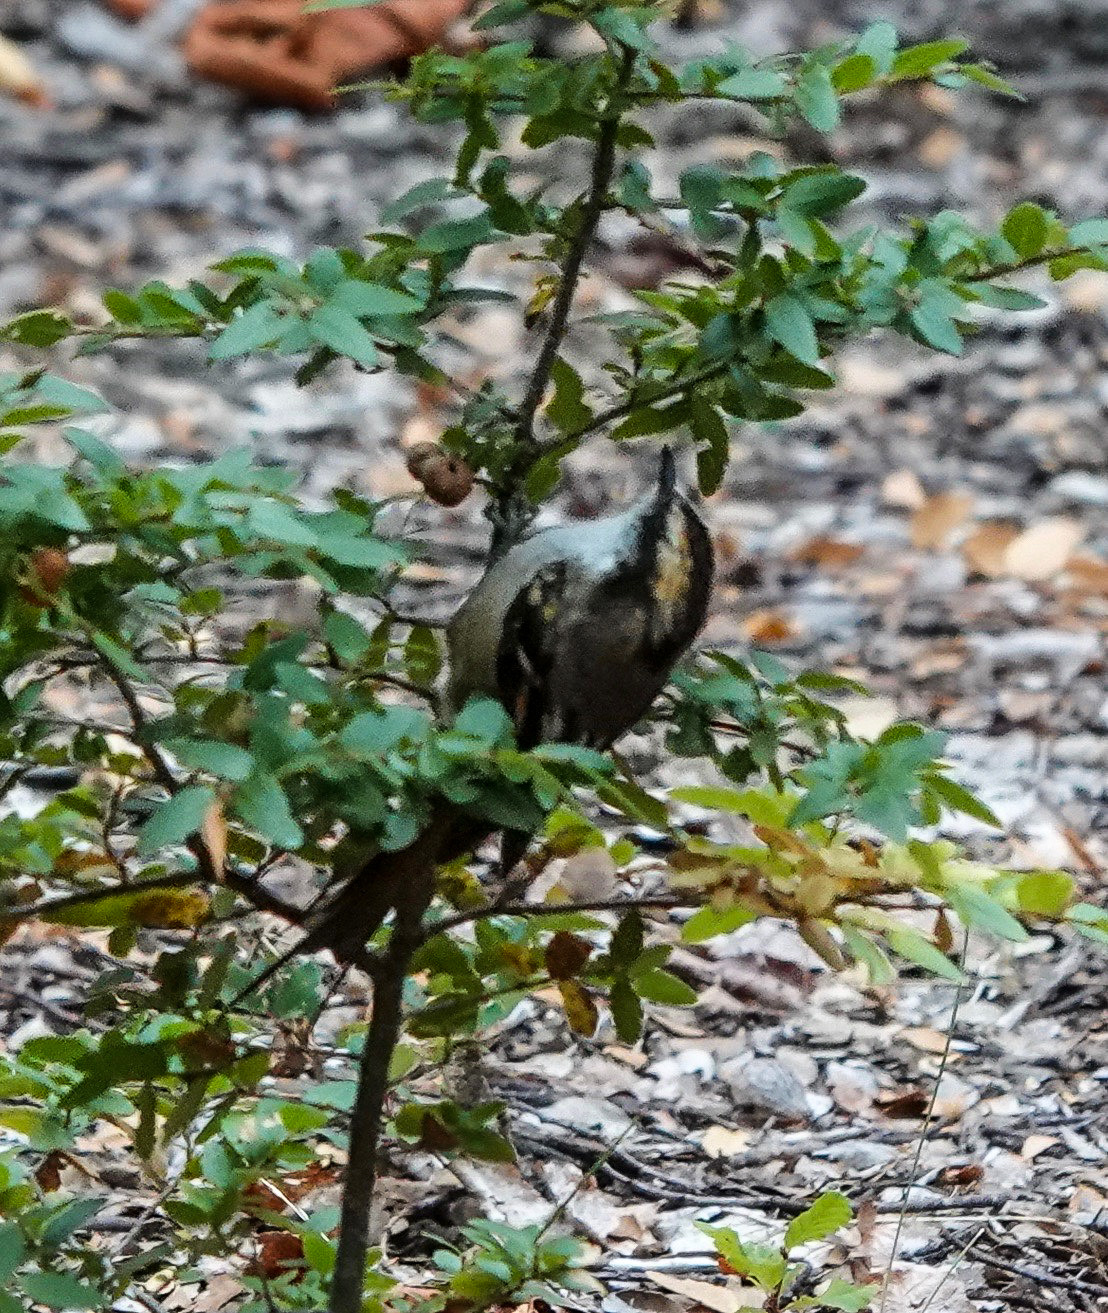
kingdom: Animalia
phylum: Chordata
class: Aves
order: Passeriformes
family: Furnariidae
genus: Aphrastura
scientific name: Aphrastura spinicauda
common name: Thorn-tailed rayadito
